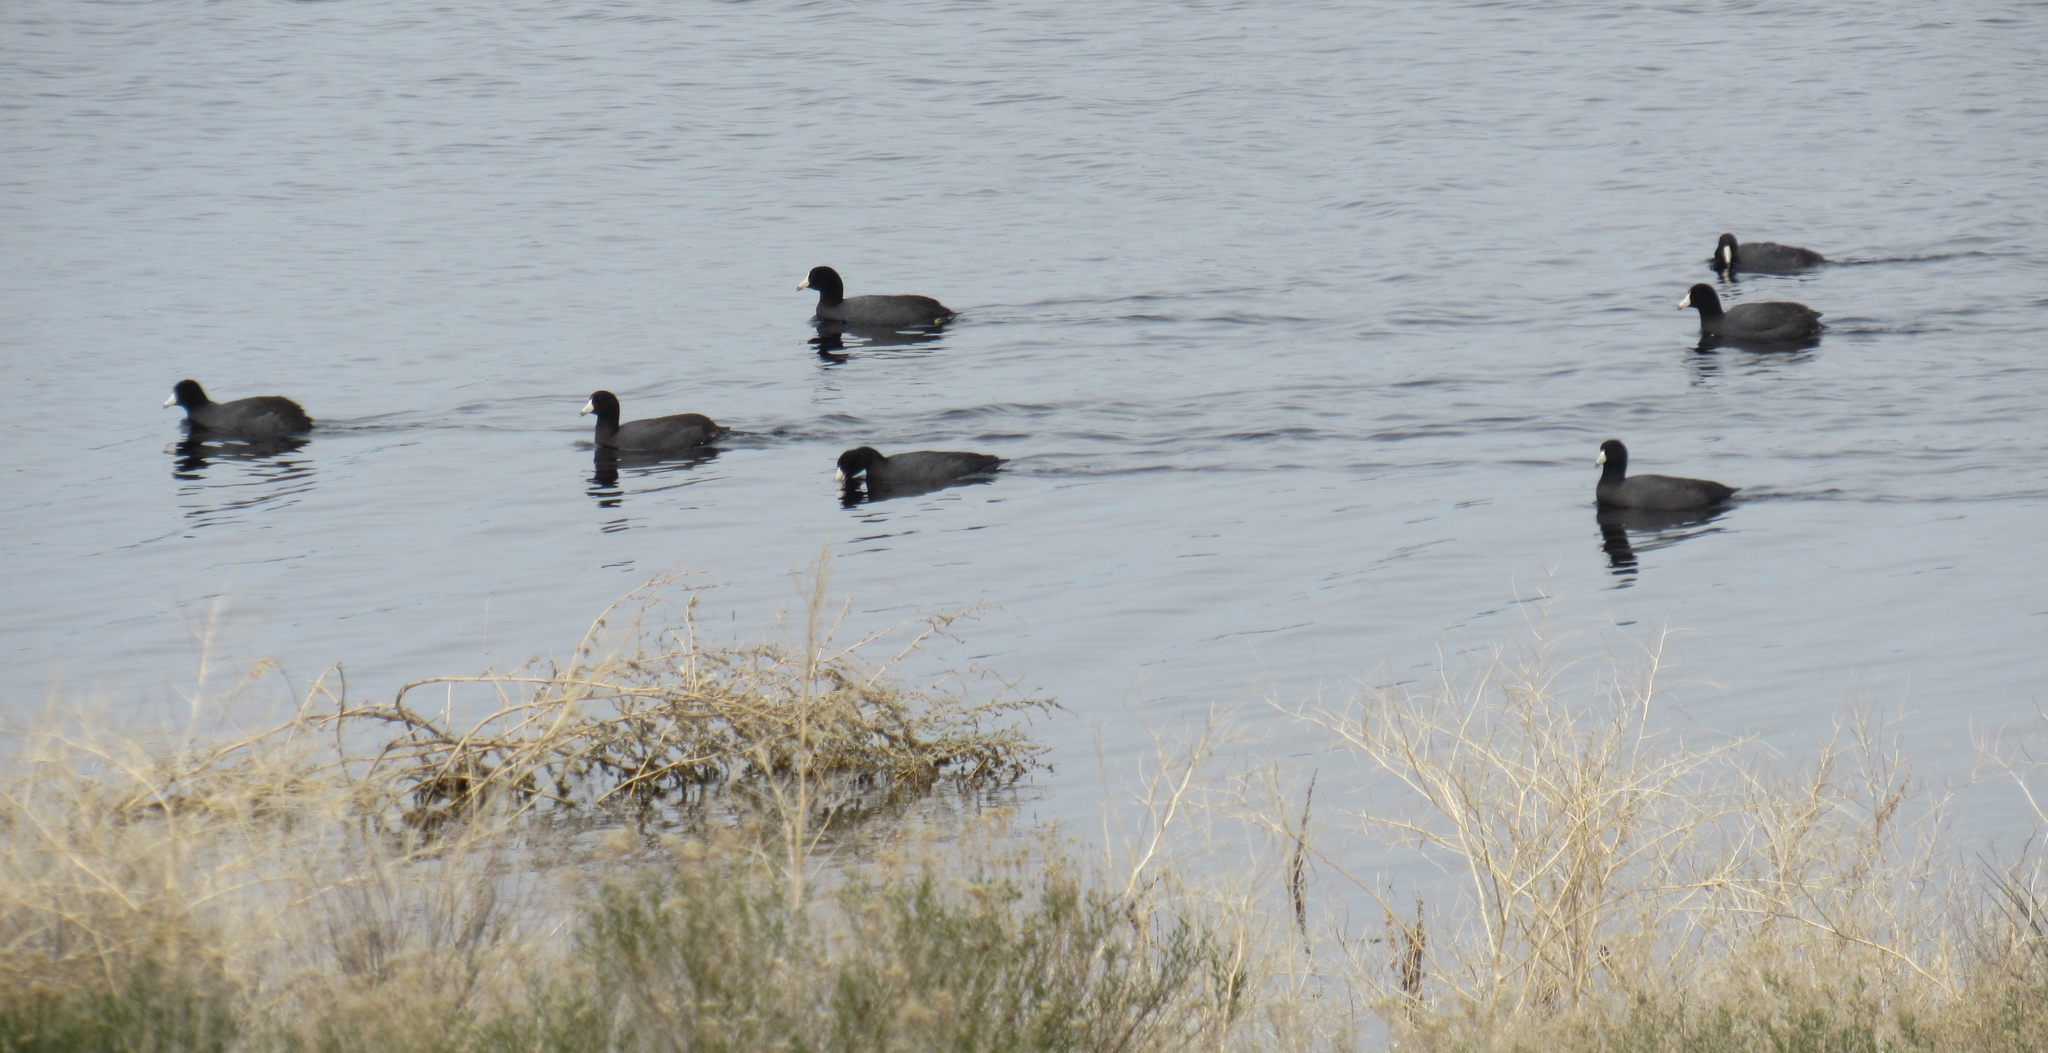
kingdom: Animalia
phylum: Chordata
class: Aves
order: Gruiformes
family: Rallidae
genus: Fulica
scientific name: Fulica americana
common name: American coot
